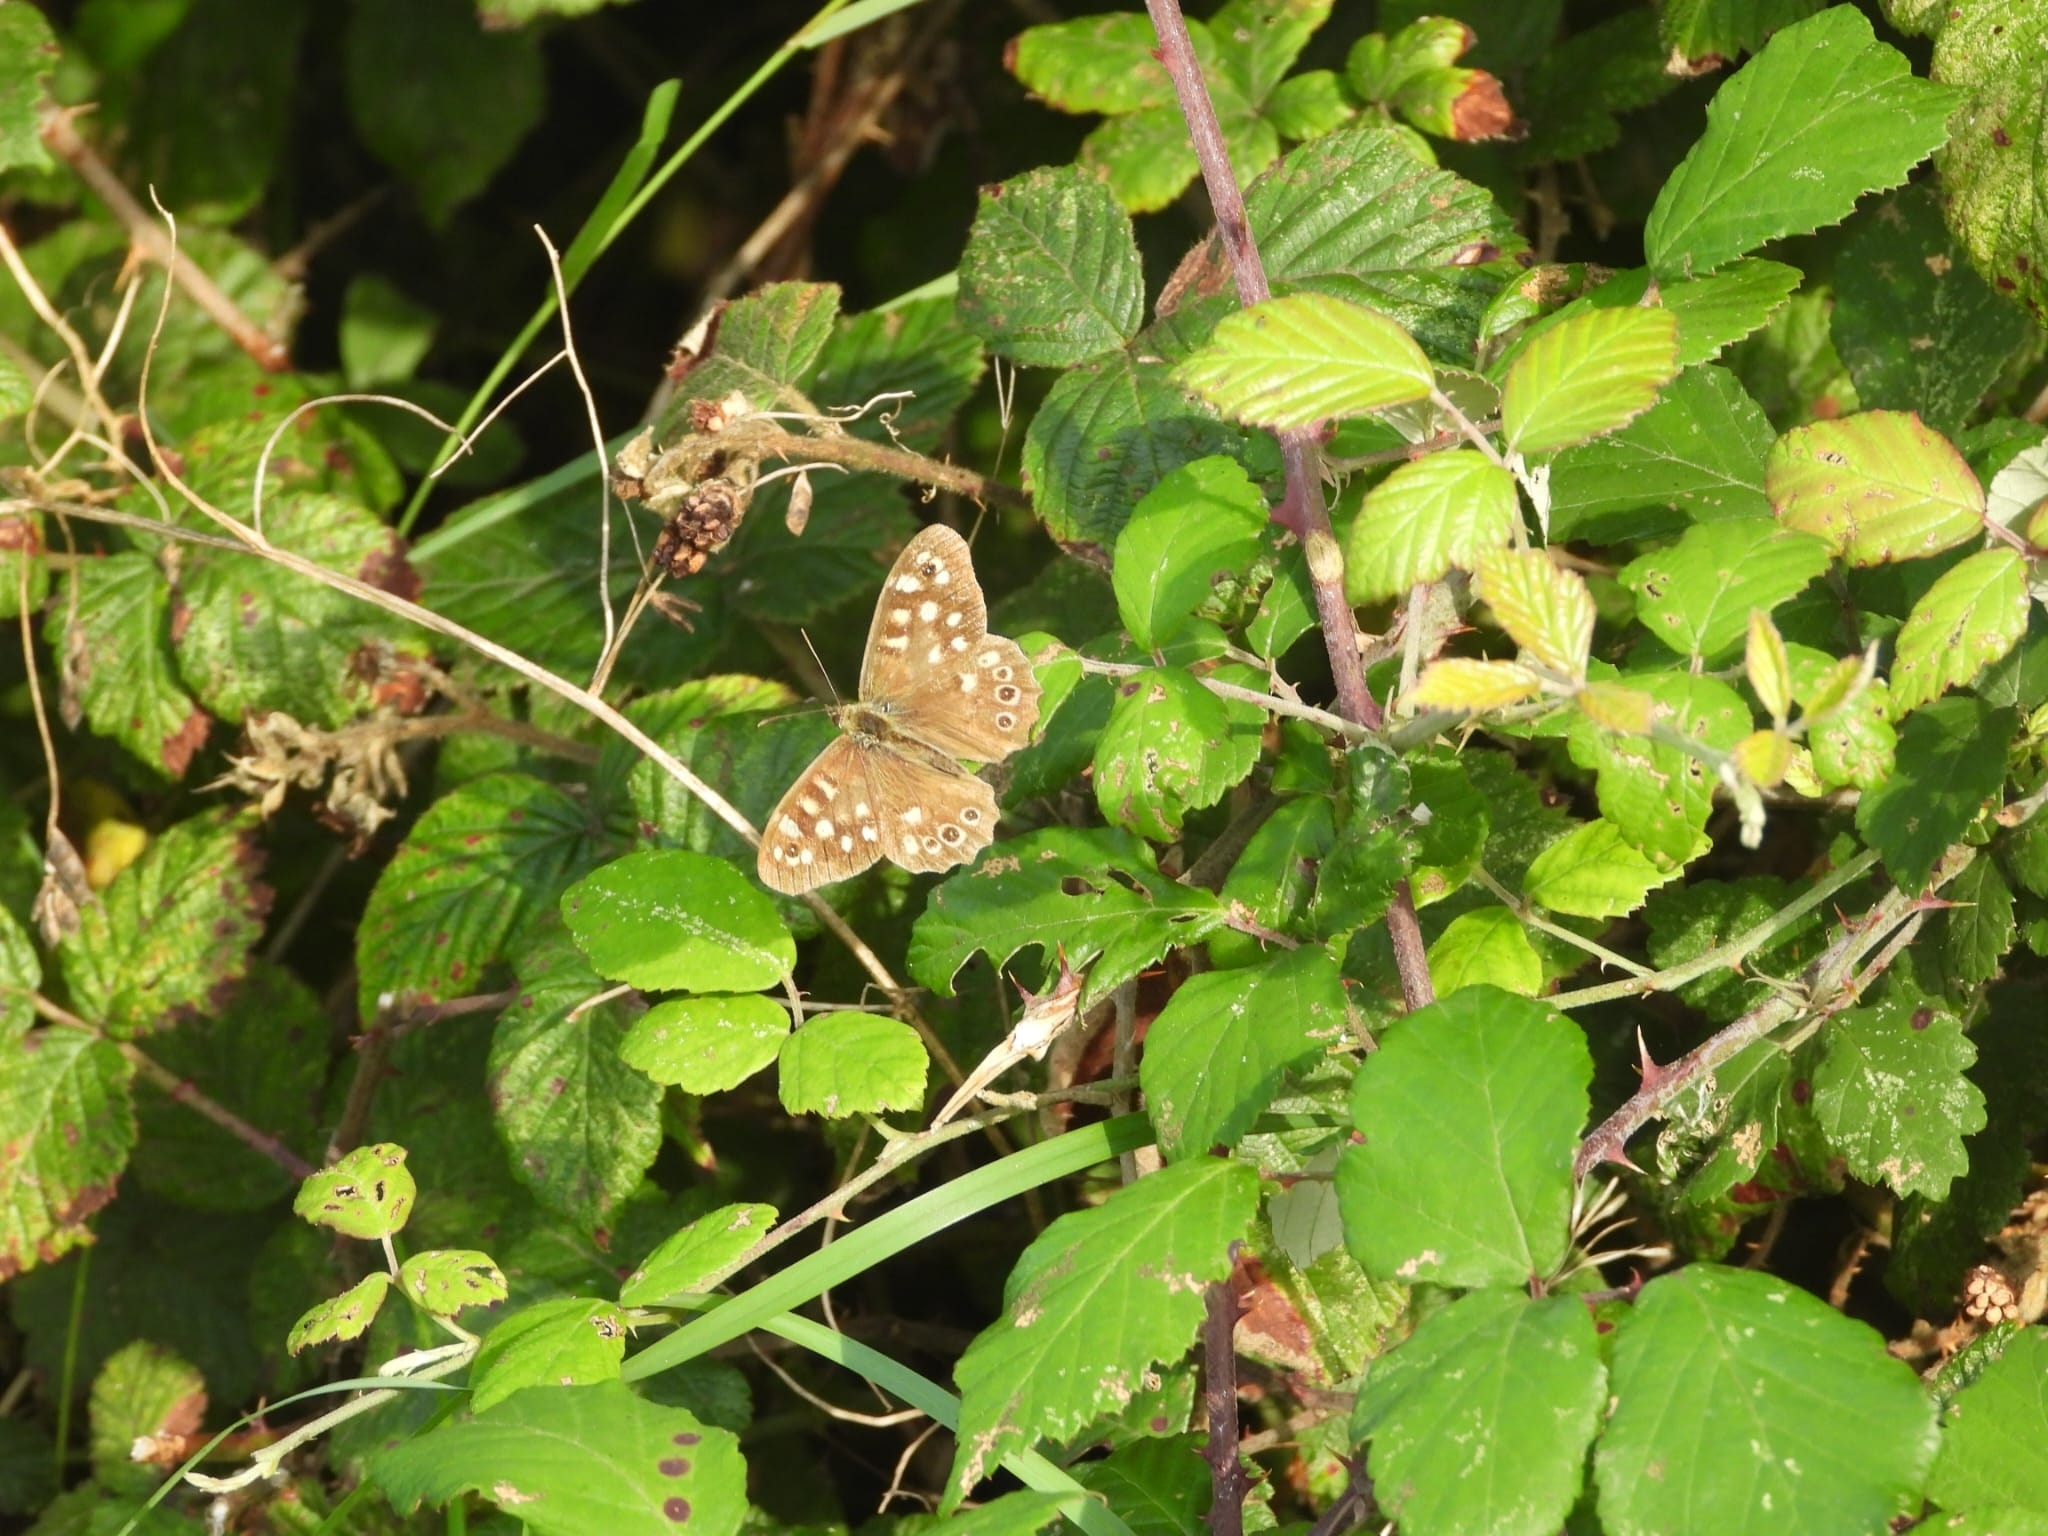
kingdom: Animalia
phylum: Arthropoda
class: Insecta
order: Lepidoptera
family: Nymphalidae
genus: Pararge
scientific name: Pararge aegeria
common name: Speckled wood
